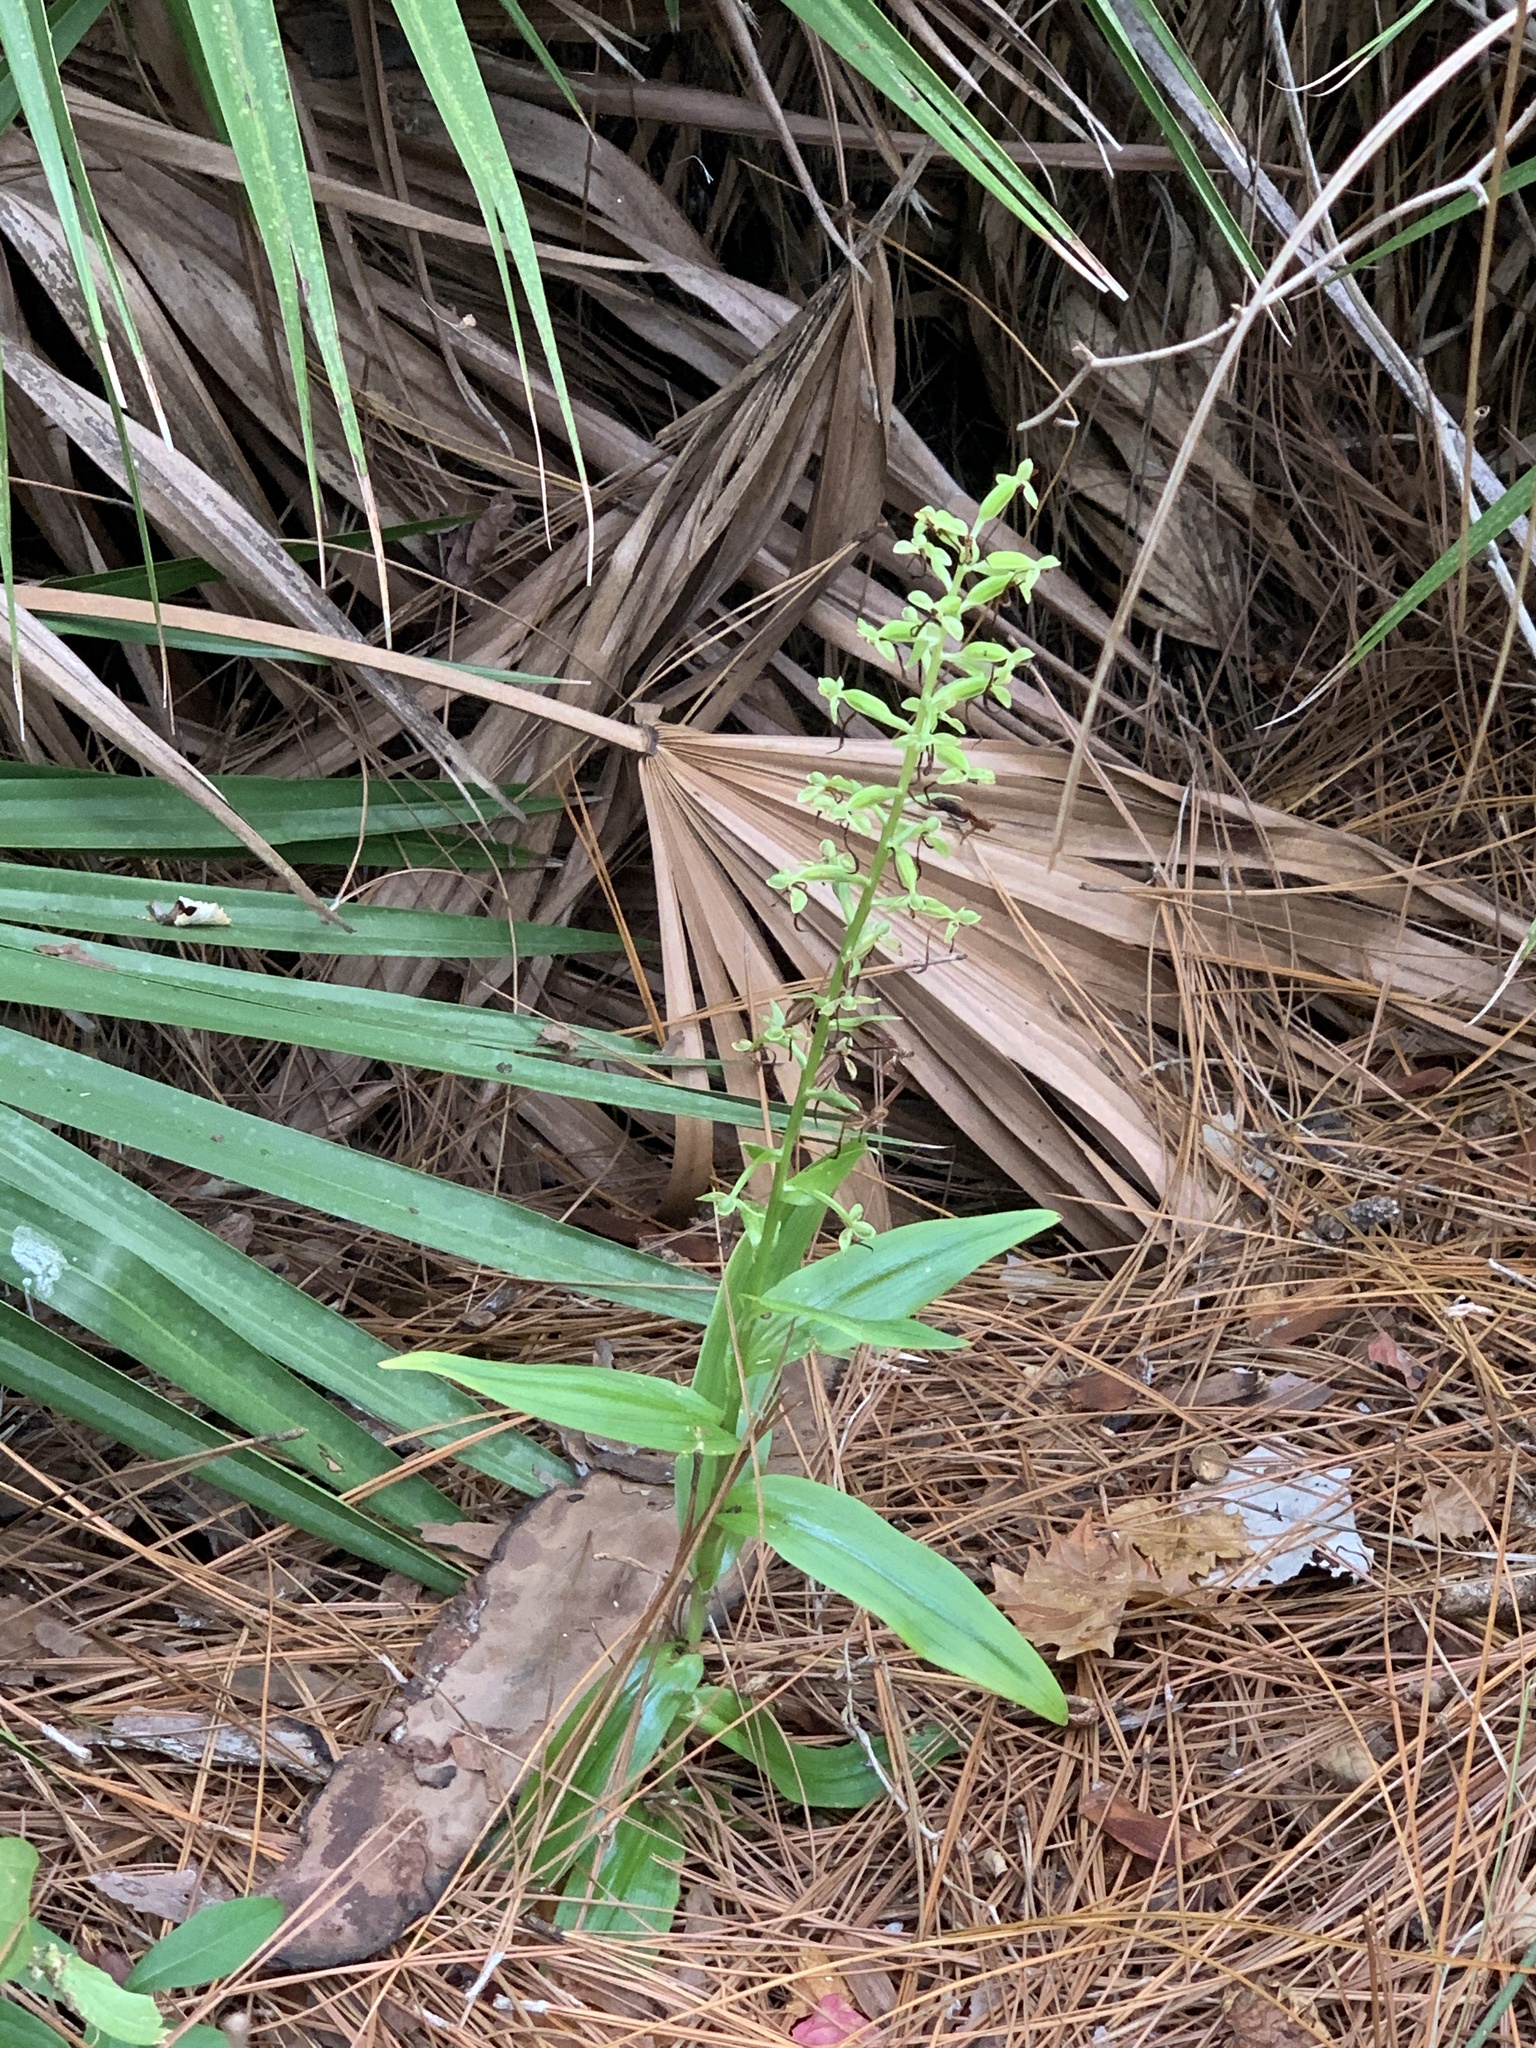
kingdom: Plantae
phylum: Tracheophyta
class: Liliopsida
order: Asparagales
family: Orchidaceae
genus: Habenaria
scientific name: Habenaria floribunda
